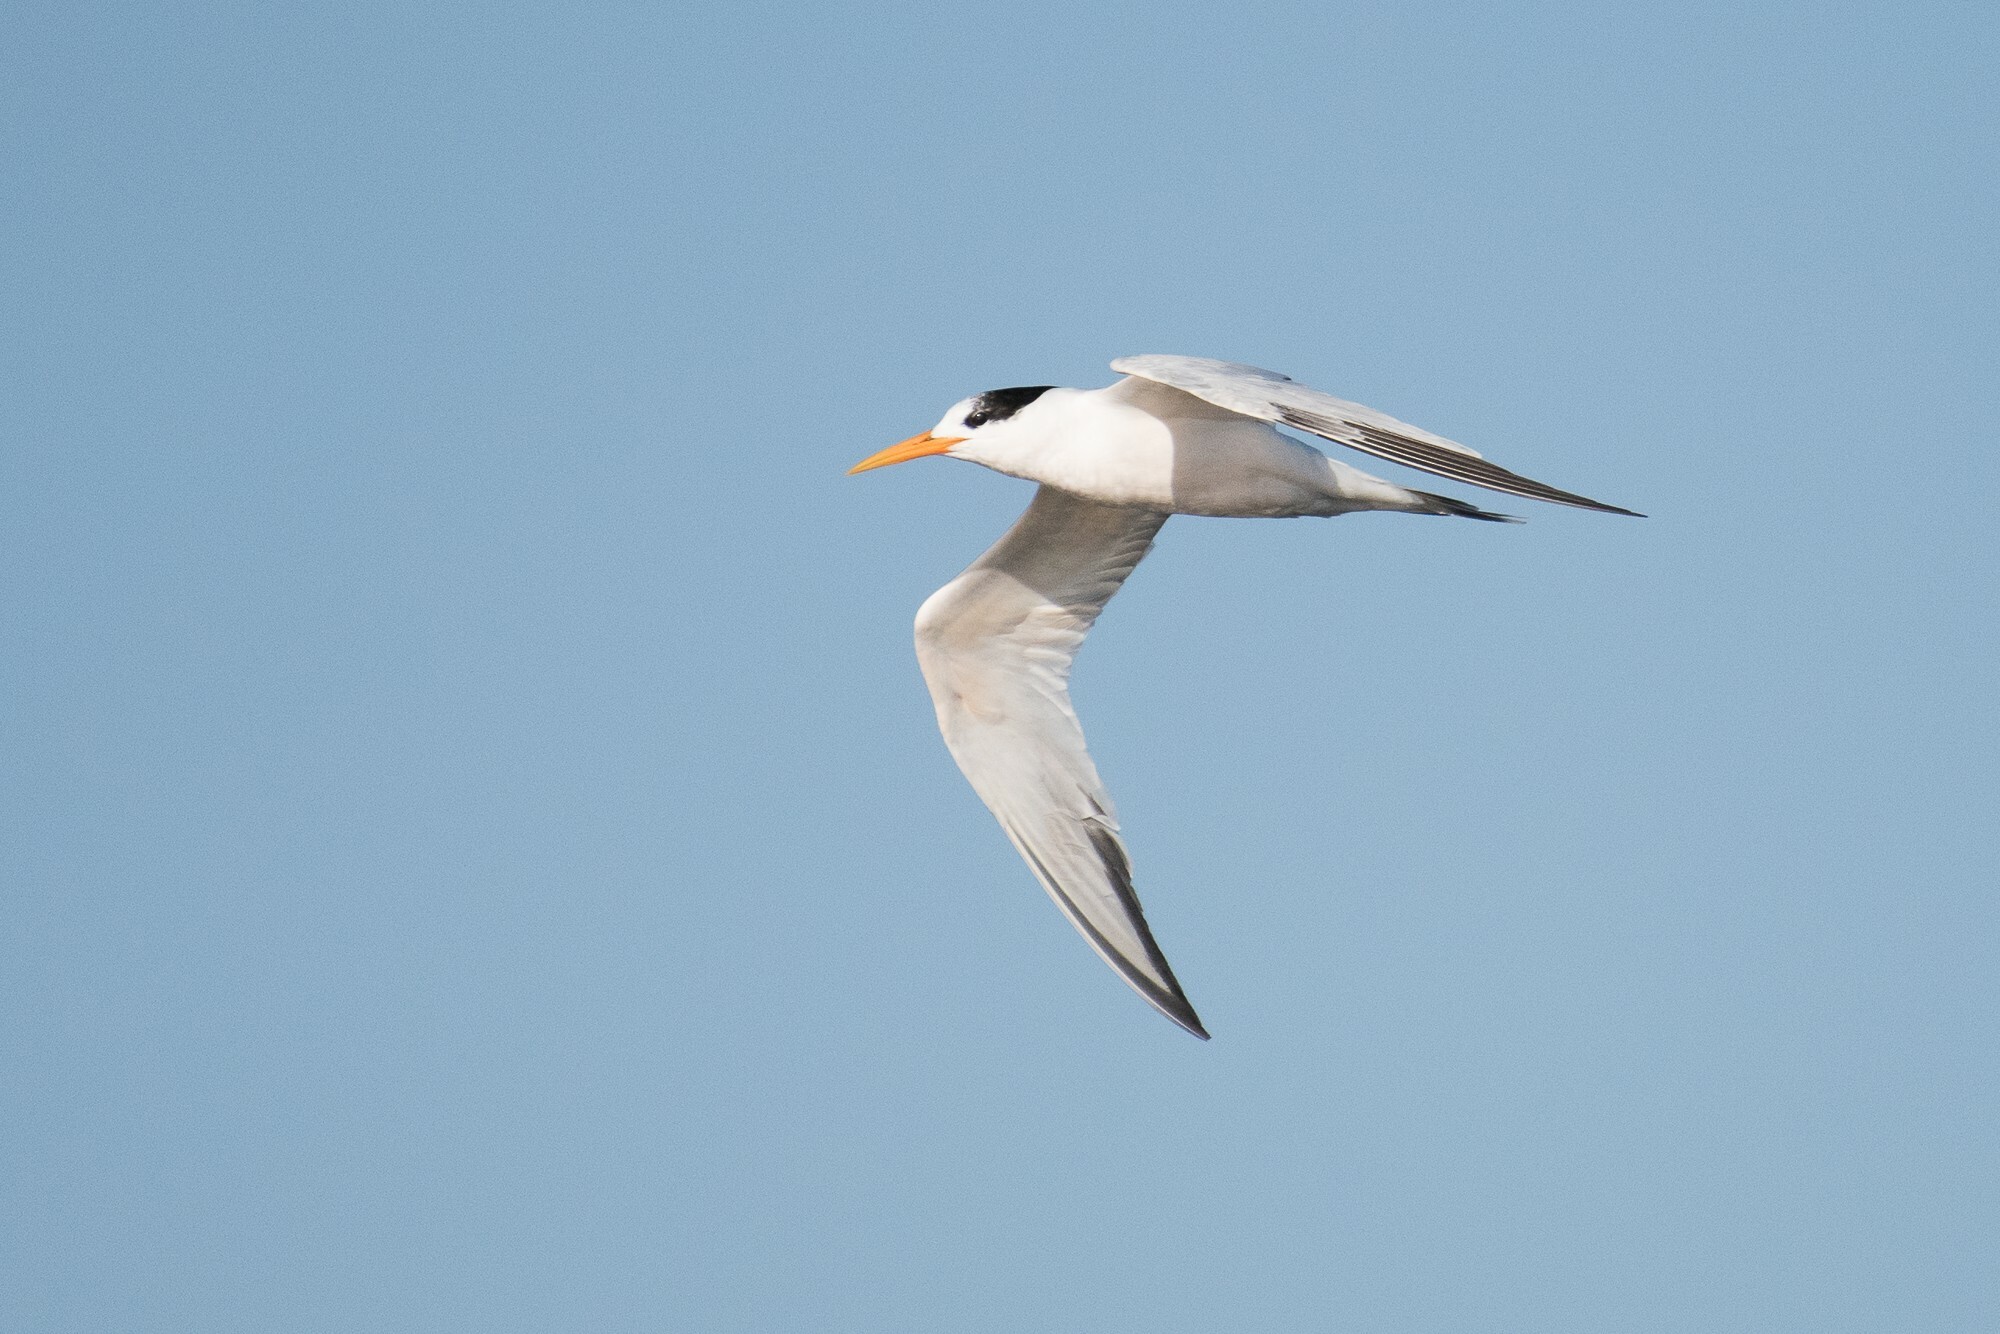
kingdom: Animalia
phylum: Chordata
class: Aves
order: Charadriiformes
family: Laridae
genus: Thalasseus
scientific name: Thalasseus elegans
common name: Elegant tern
